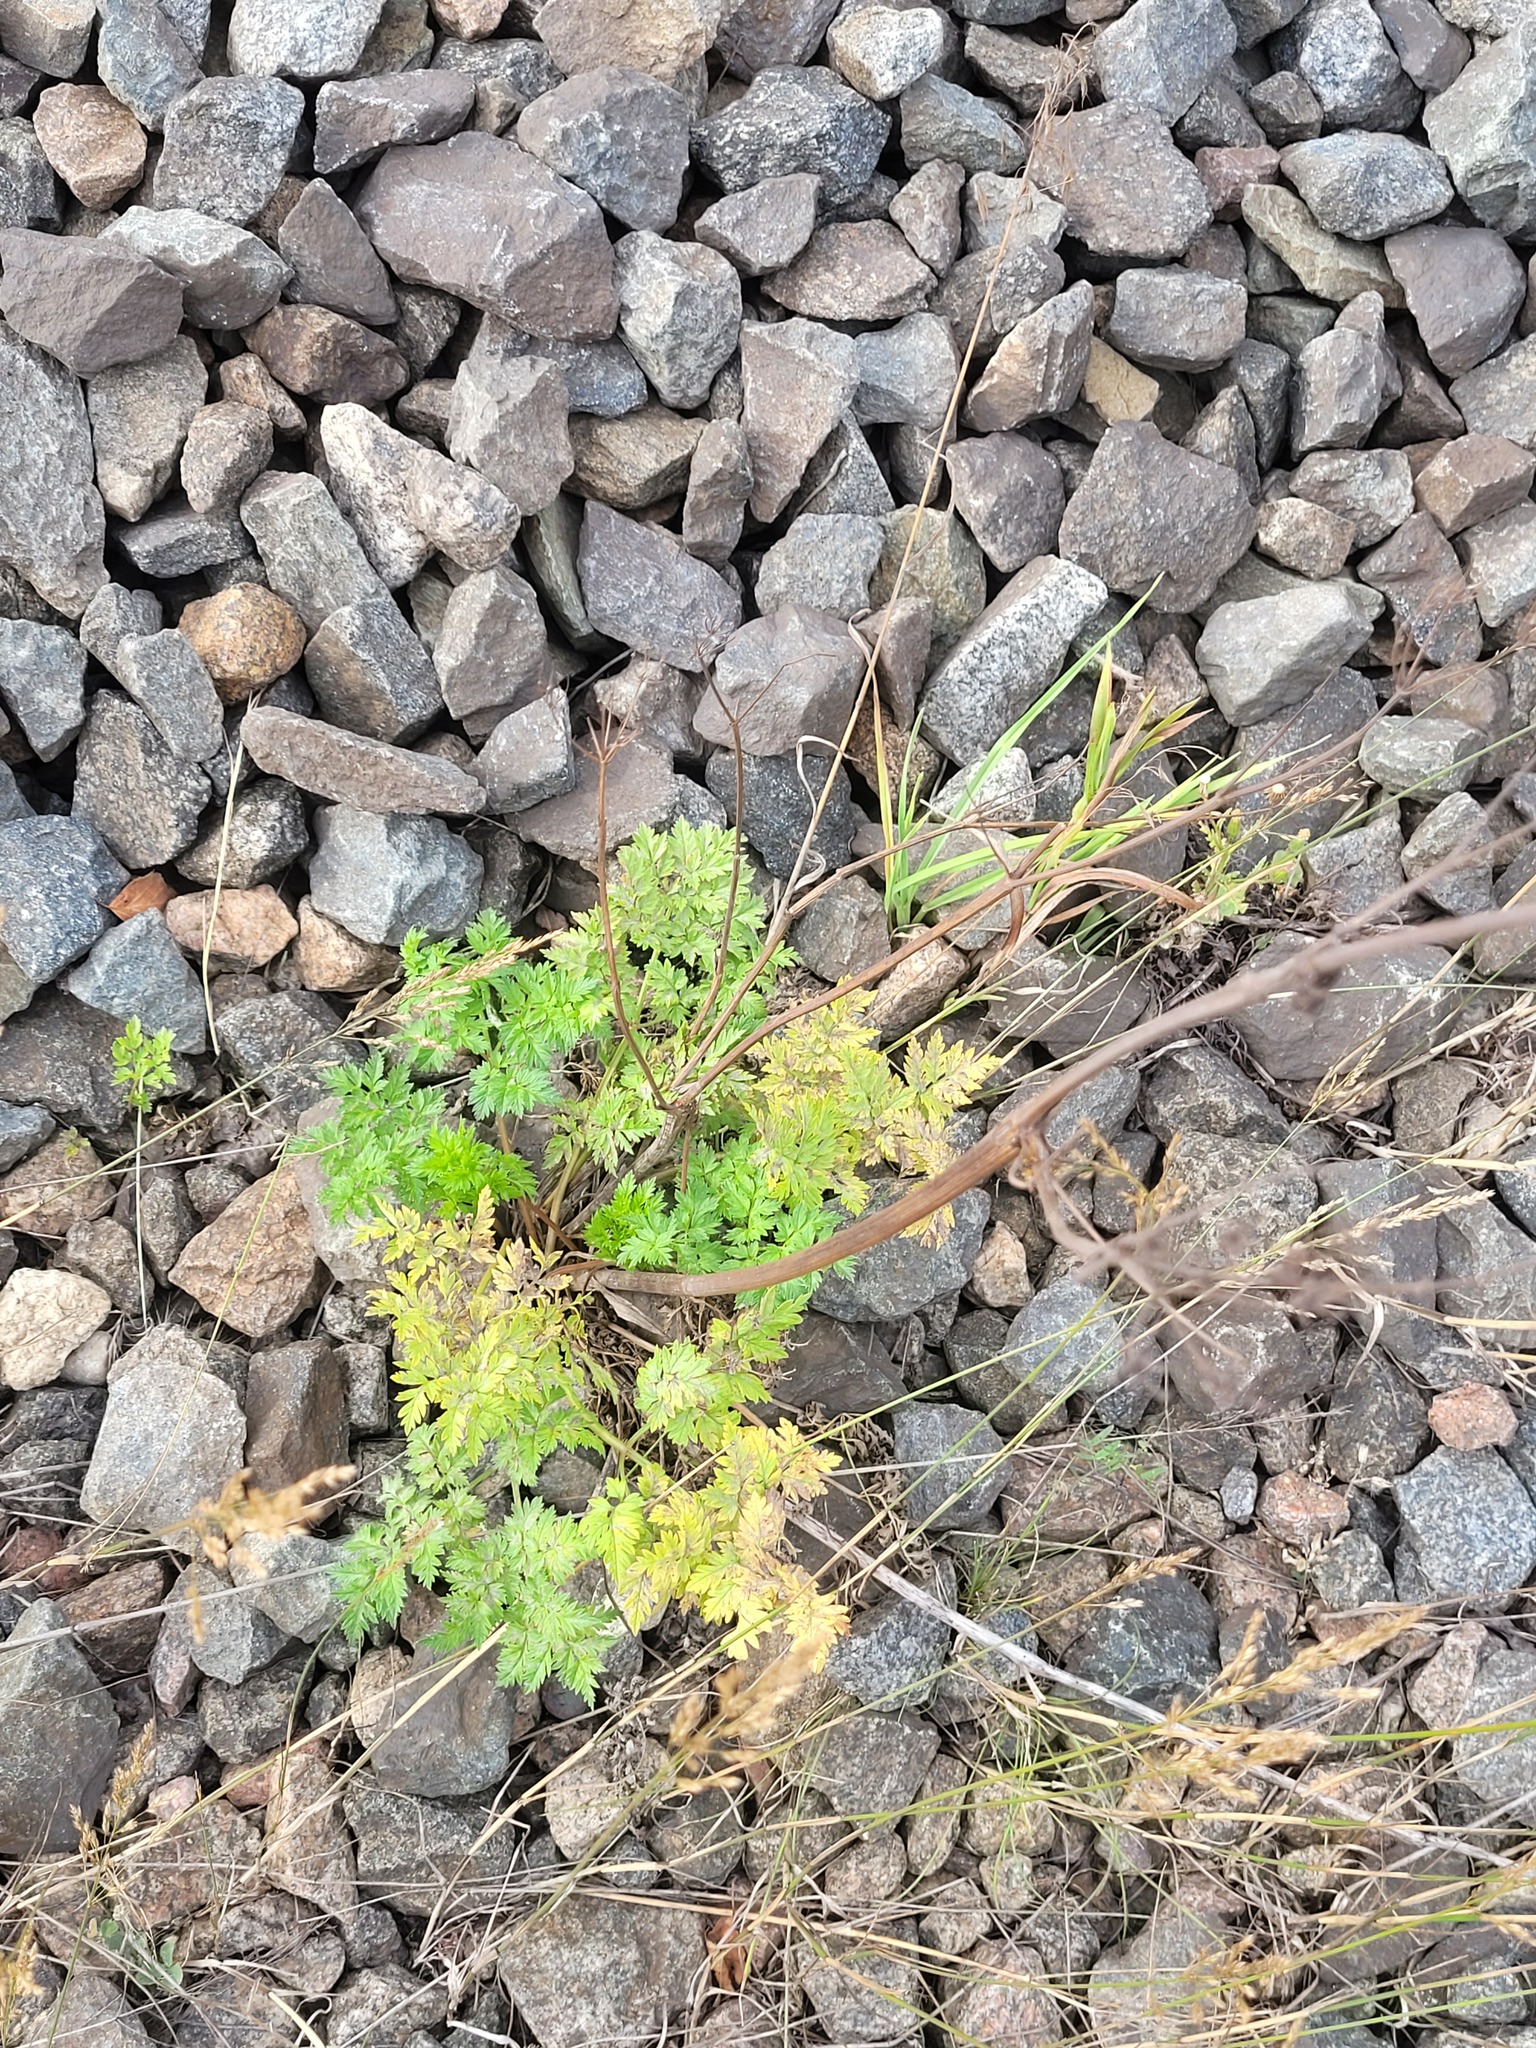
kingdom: Plantae
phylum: Tracheophyta
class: Magnoliopsida
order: Apiales
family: Apiaceae
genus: Anthriscus
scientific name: Anthriscus sylvestris
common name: Cow parsley
